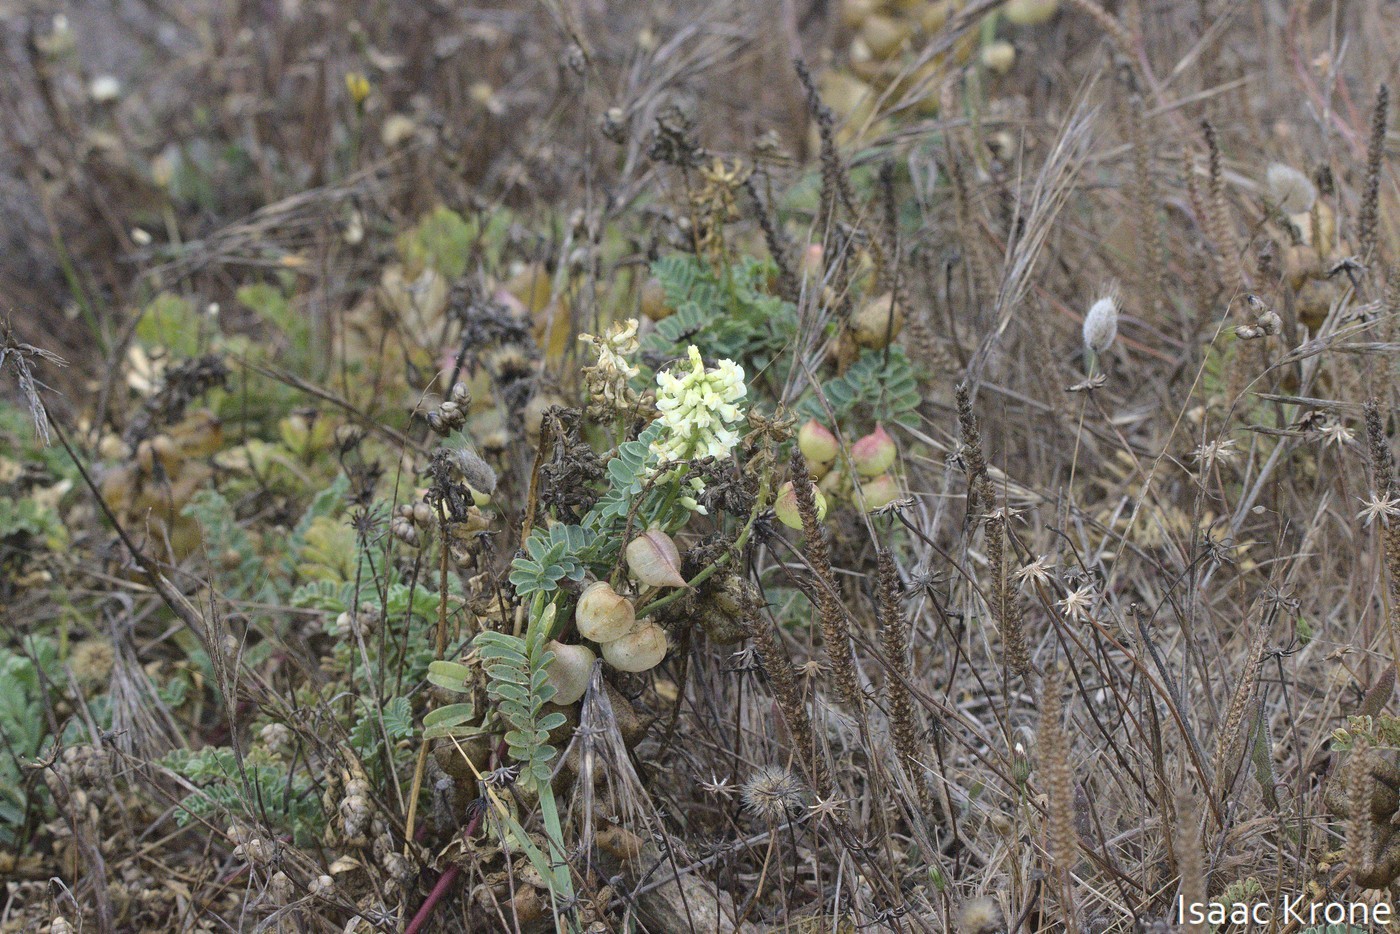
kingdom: Plantae
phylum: Tracheophyta
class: Magnoliopsida
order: Fabales
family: Fabaceae
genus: Astragalus
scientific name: Astragalus nuttallii
